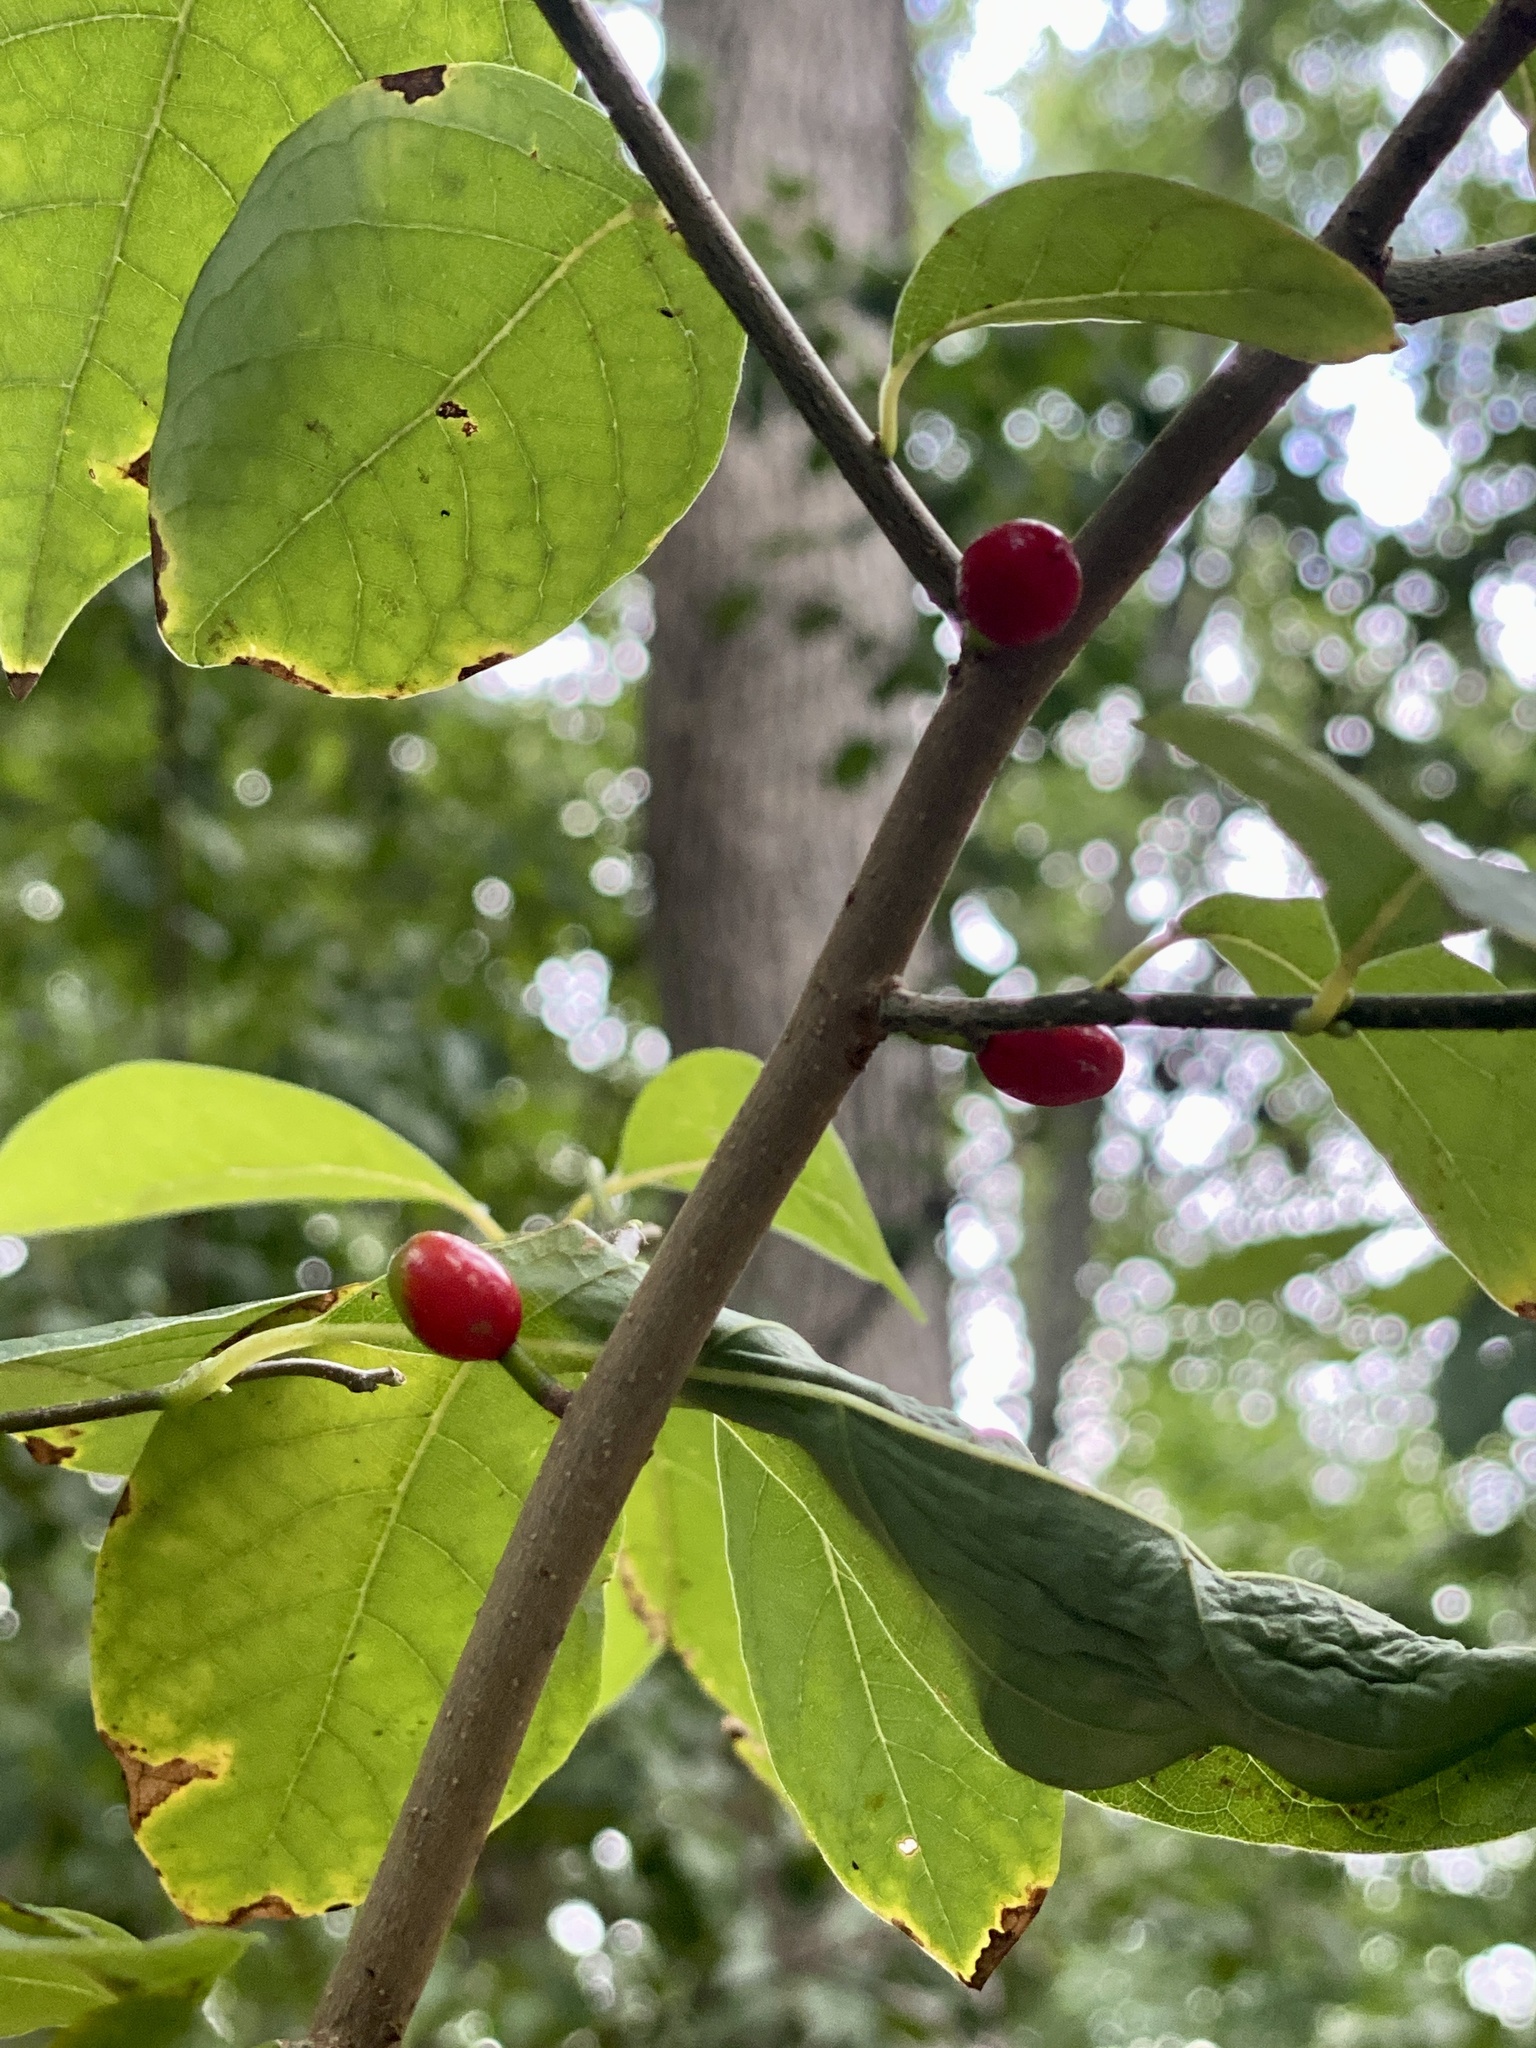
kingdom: Plantae
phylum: Tracheophyta
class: Magnoliopsida
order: Laurales
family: Lauraceae
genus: Lindera
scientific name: Lindera benzoin
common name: Spicebush
